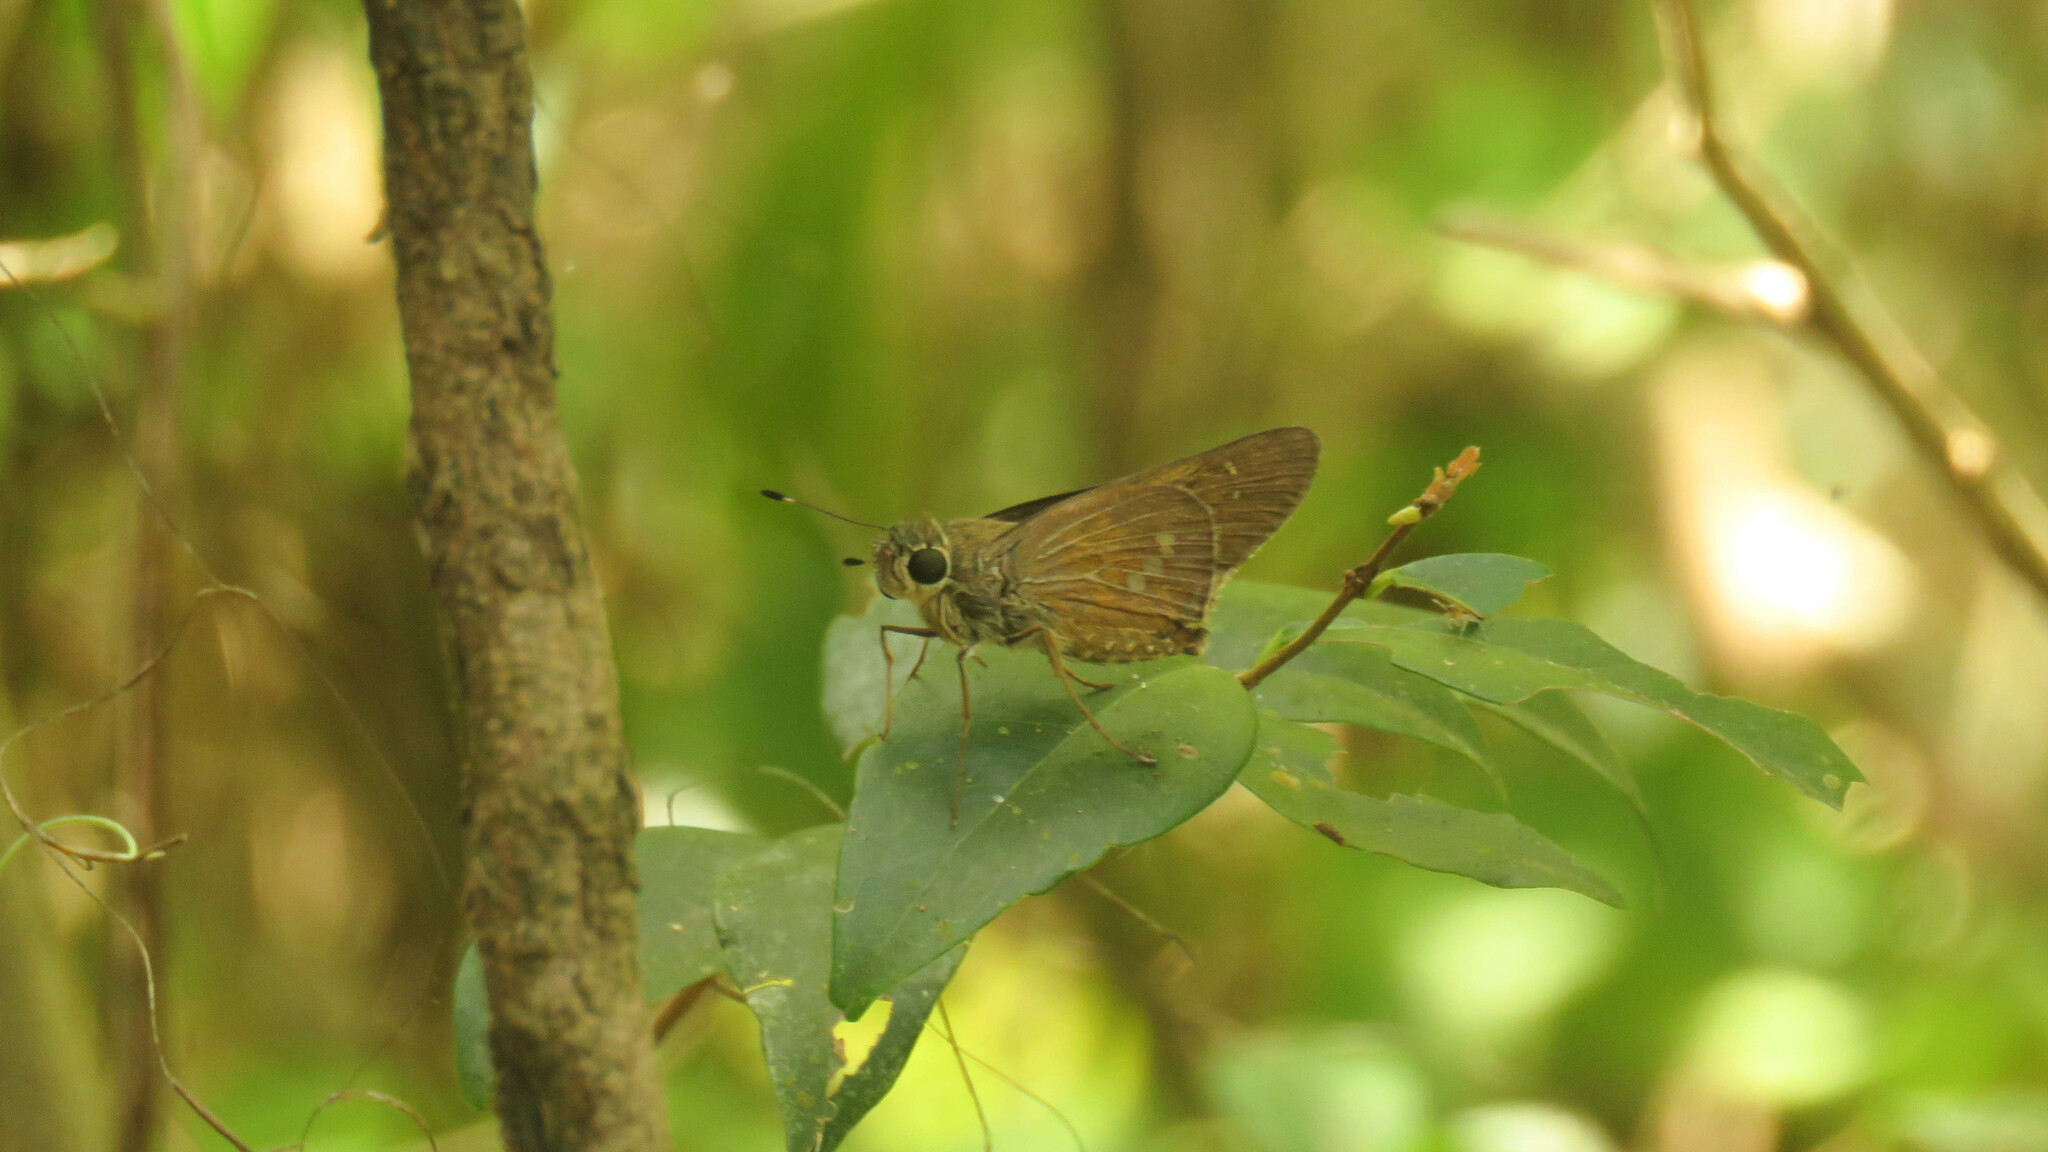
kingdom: Animalia
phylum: Arthropoda
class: Insecta
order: Lepidoptera
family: Hesperiidae
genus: Calpodes
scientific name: Calpodes ethlius
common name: Brazilian skipper
